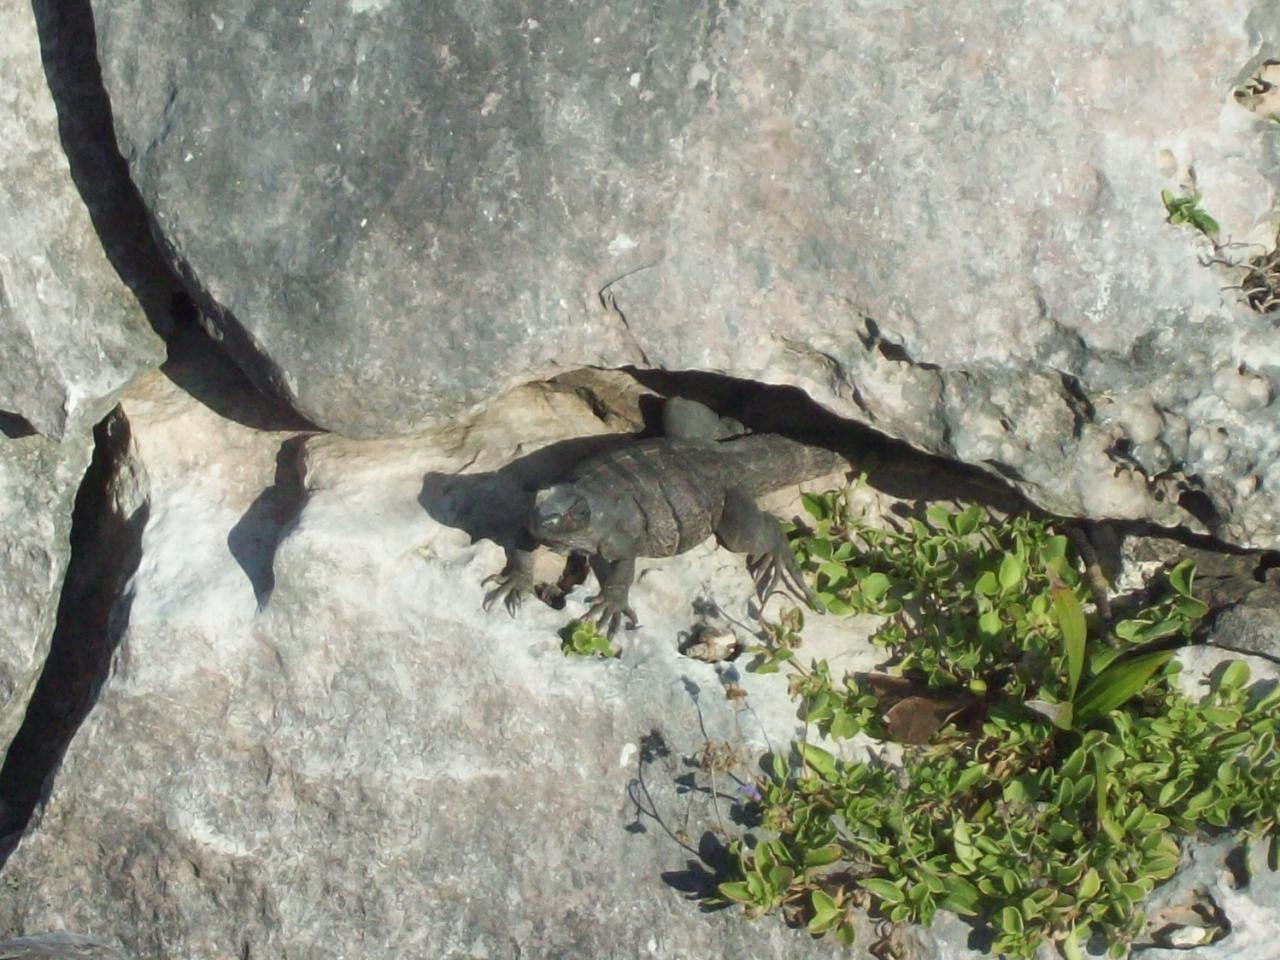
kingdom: Animalia
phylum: Chordata
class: Squamata
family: Iguanidae
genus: Ctenosaura
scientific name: Ctenosaura similis
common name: Black spiny-tailed iguana
